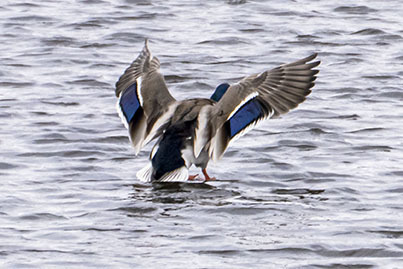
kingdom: Animalia
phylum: Chordata
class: Aves
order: Anseriformes
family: Anatidae
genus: Anas
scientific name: Anas platyrhynchos
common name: Mallard
